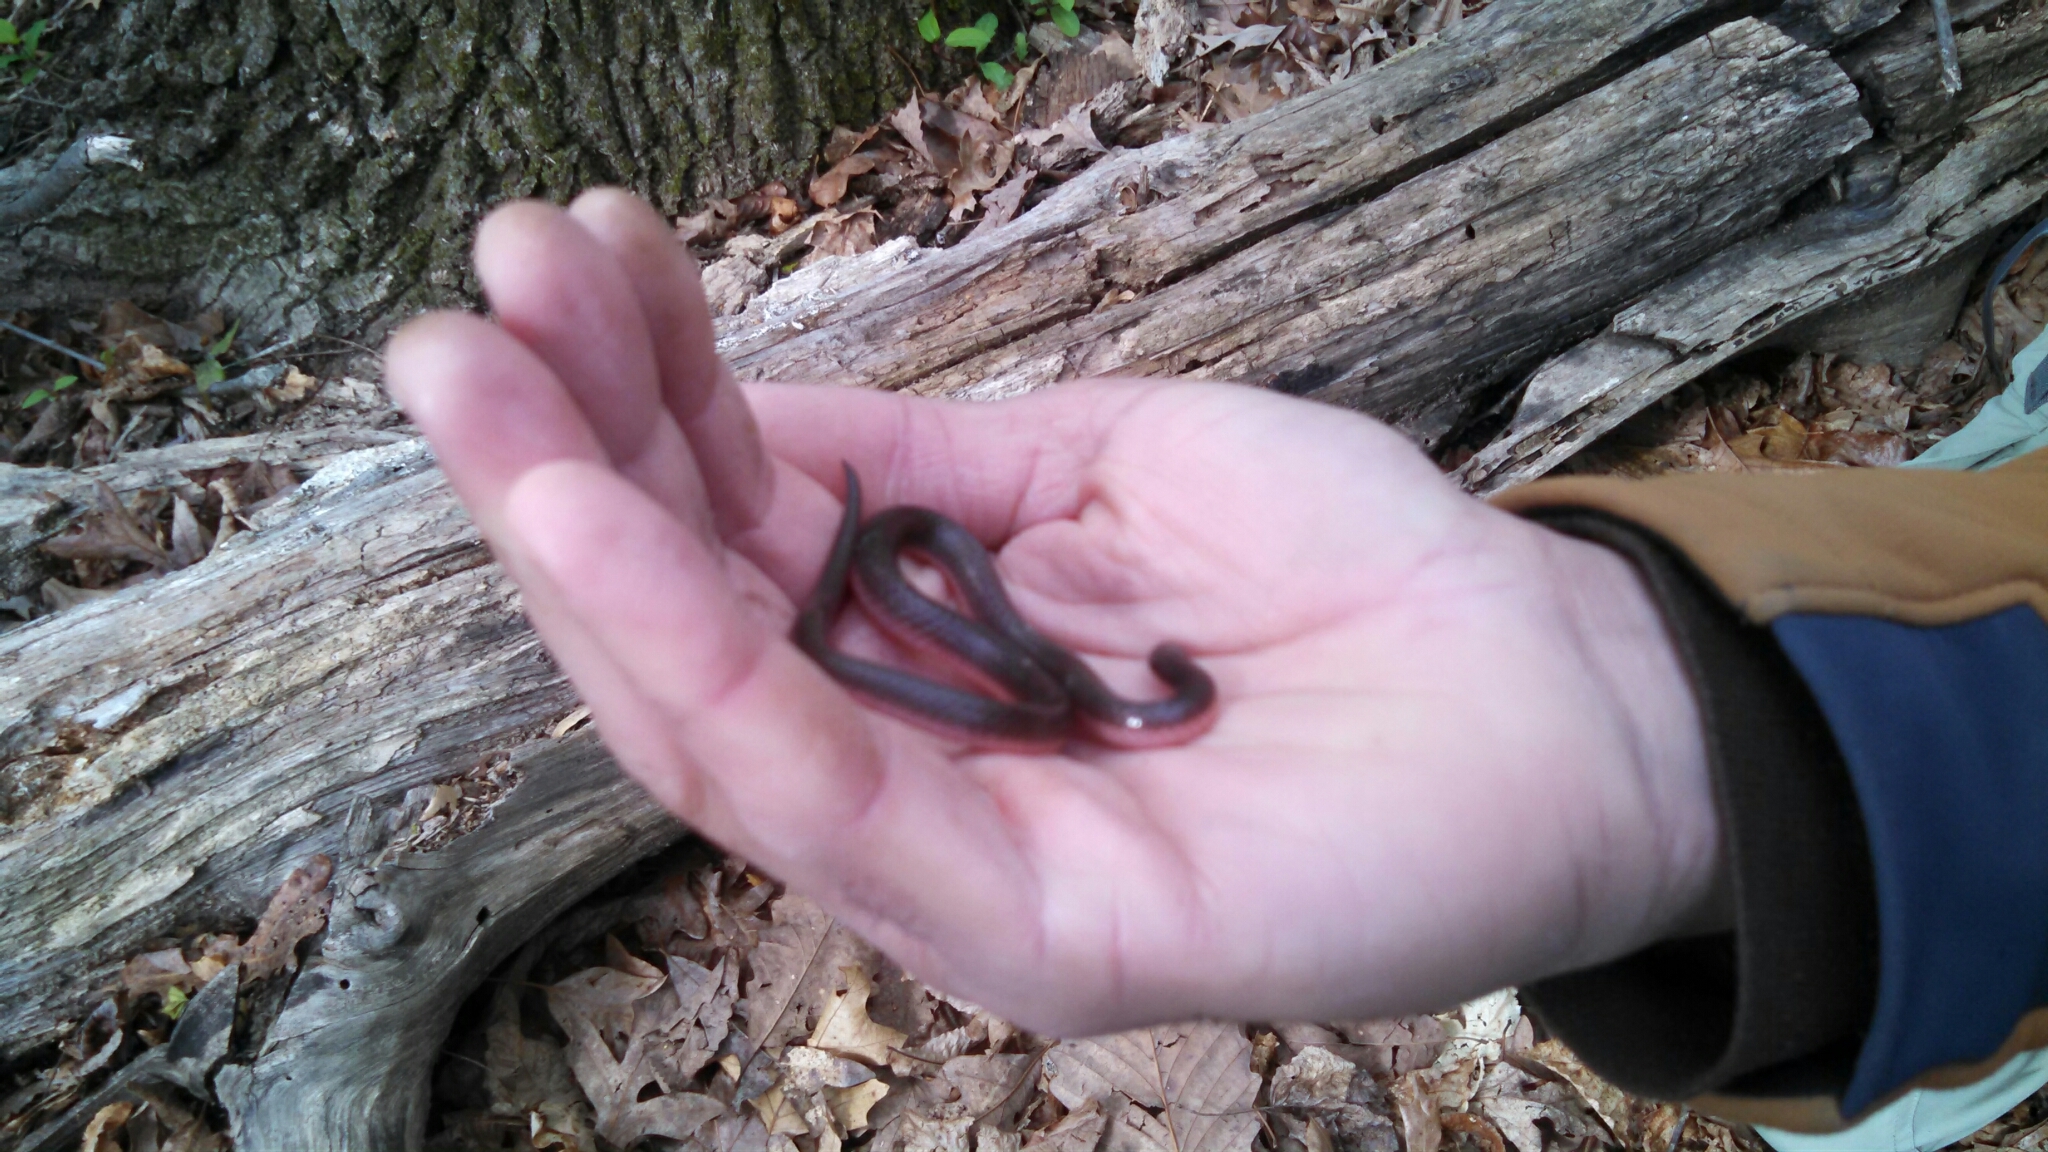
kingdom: Animalia
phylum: Chordata
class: Squamata
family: Colubridae
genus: Carphophis
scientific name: Carphophis amoenus
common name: Eastern worm snake
